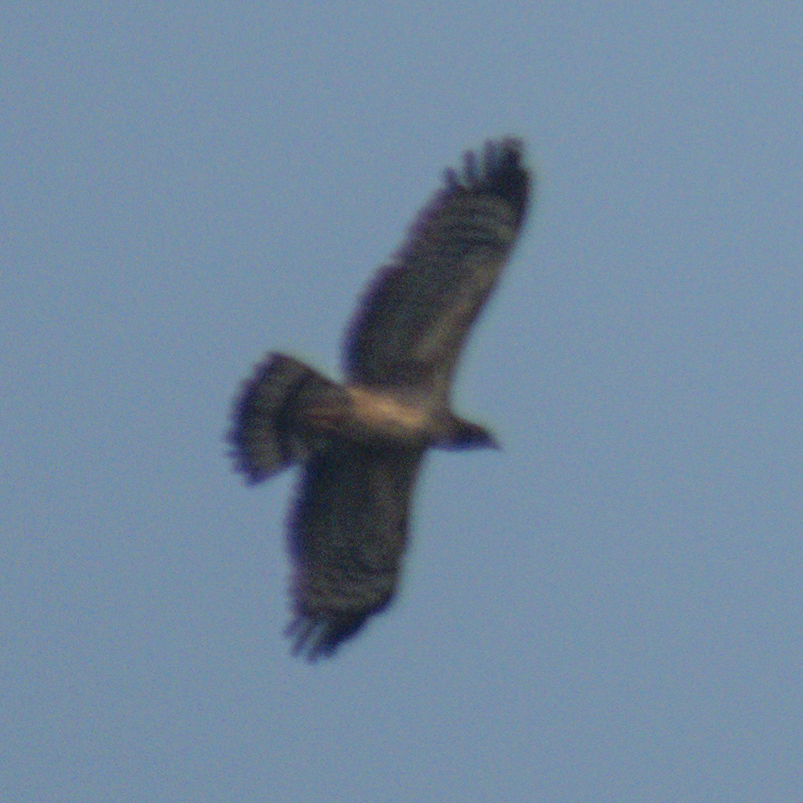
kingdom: Animalia
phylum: Chordata
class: Aves
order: Accipitriformes
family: Accipitridae
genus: Pernis
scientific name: Pernis ptilorhynchus
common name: Crested honey buzzard
